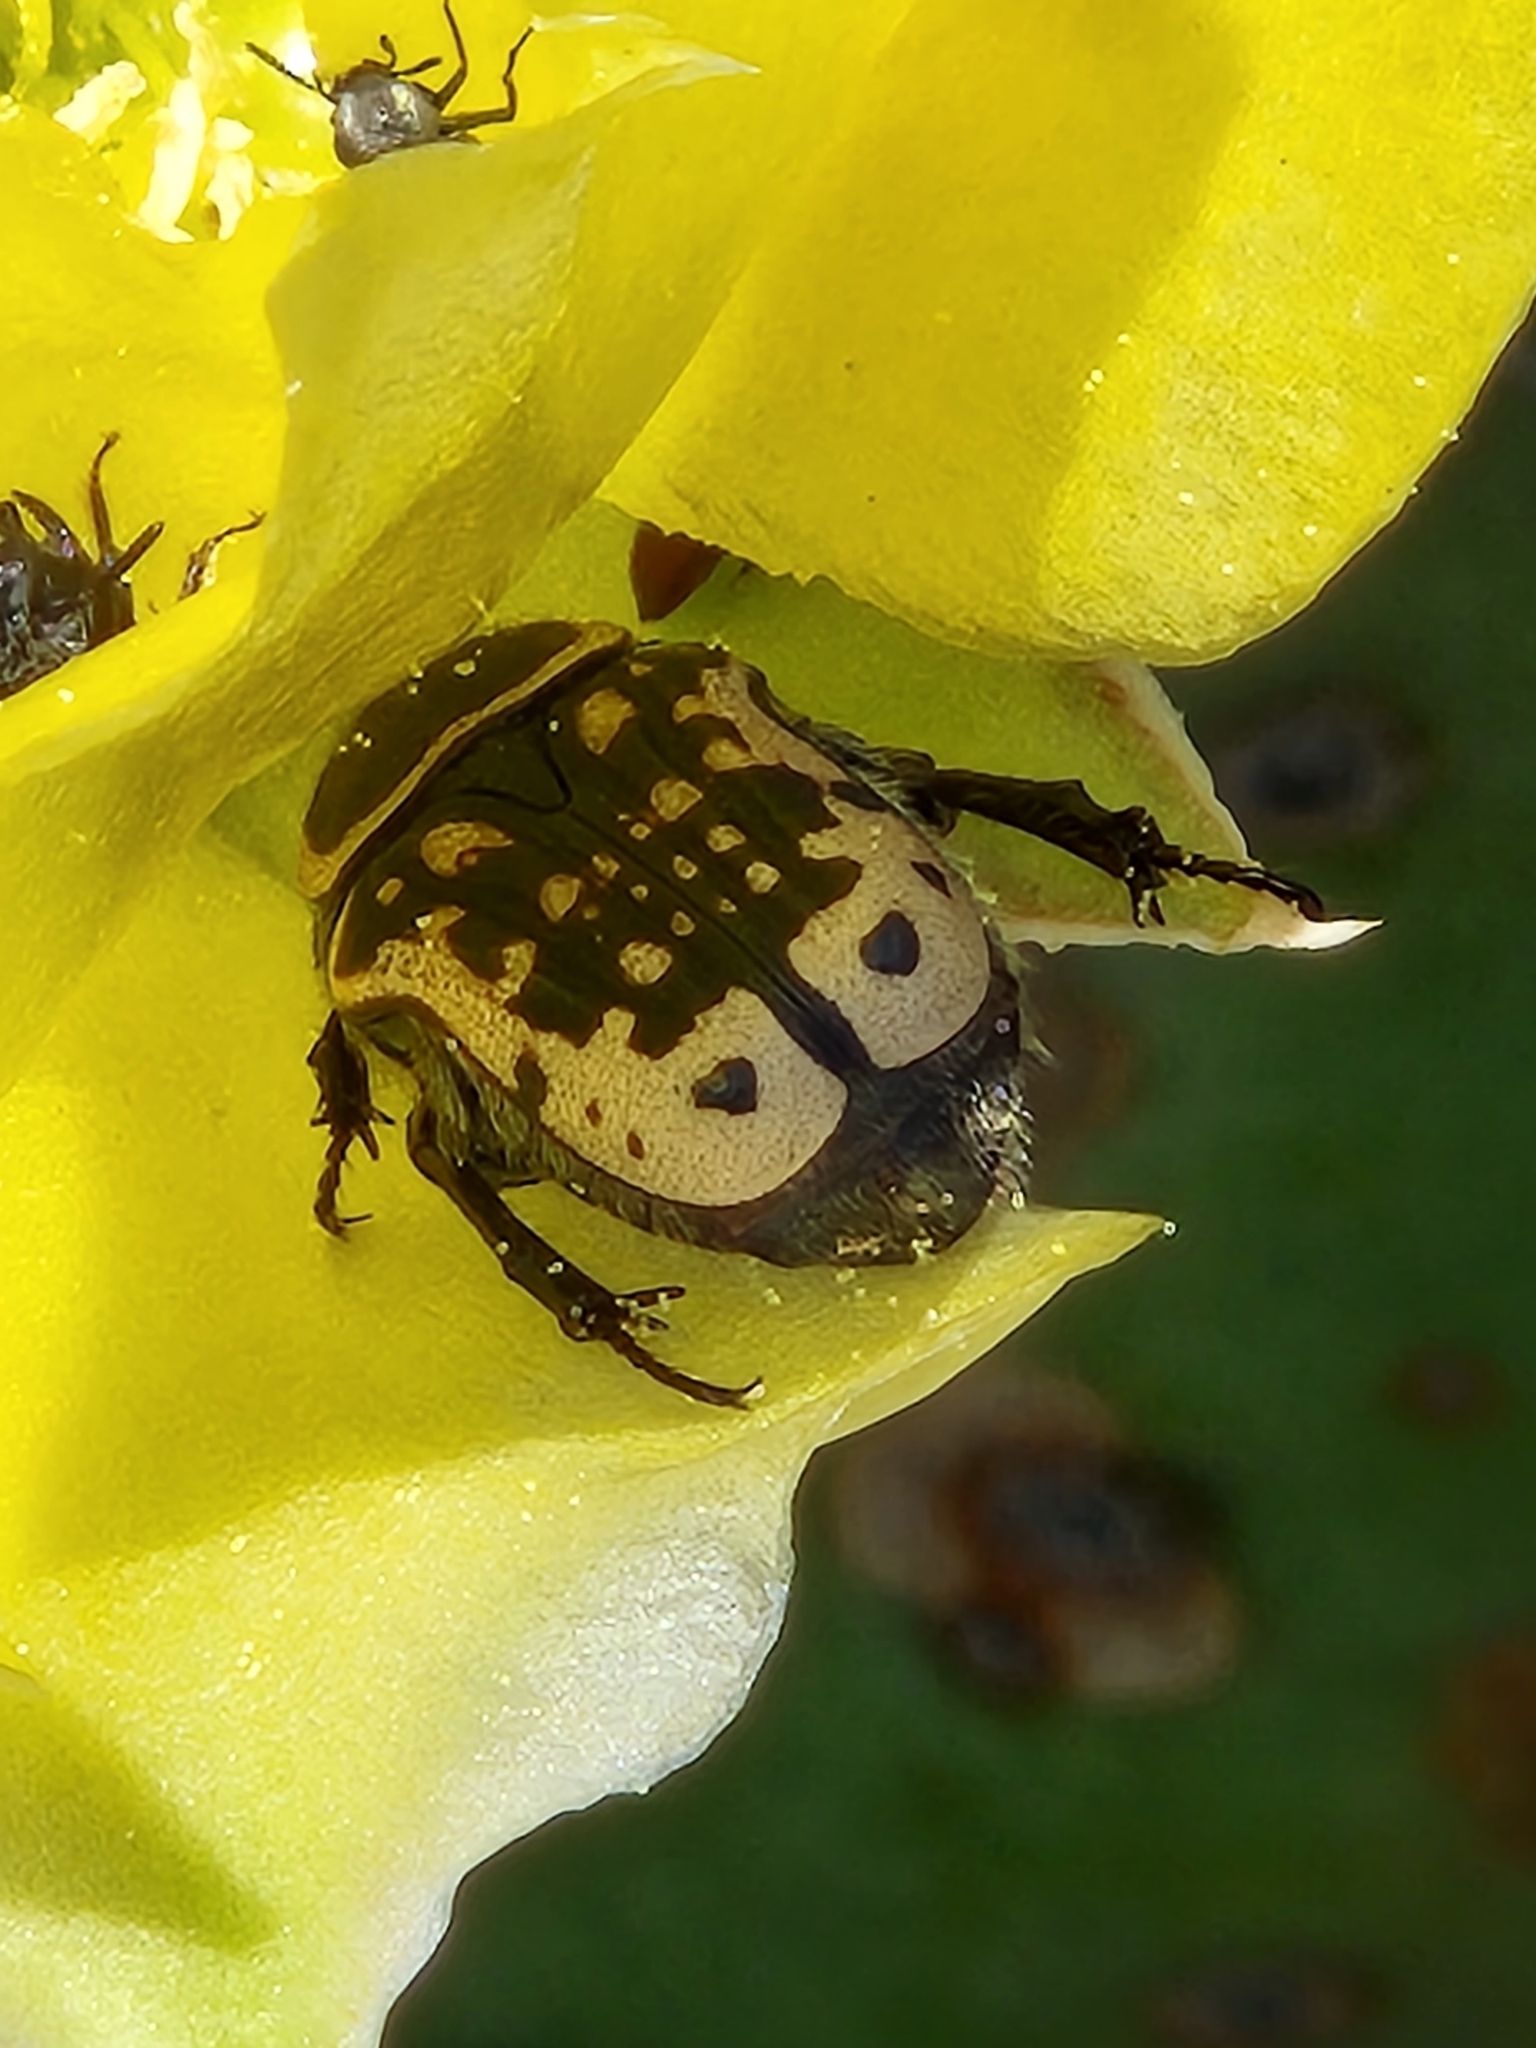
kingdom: Animalia
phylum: Arthropoda
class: Insecta
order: Coleoptera
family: Scarabaeidae
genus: Euphoria
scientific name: Euphoria kernii
